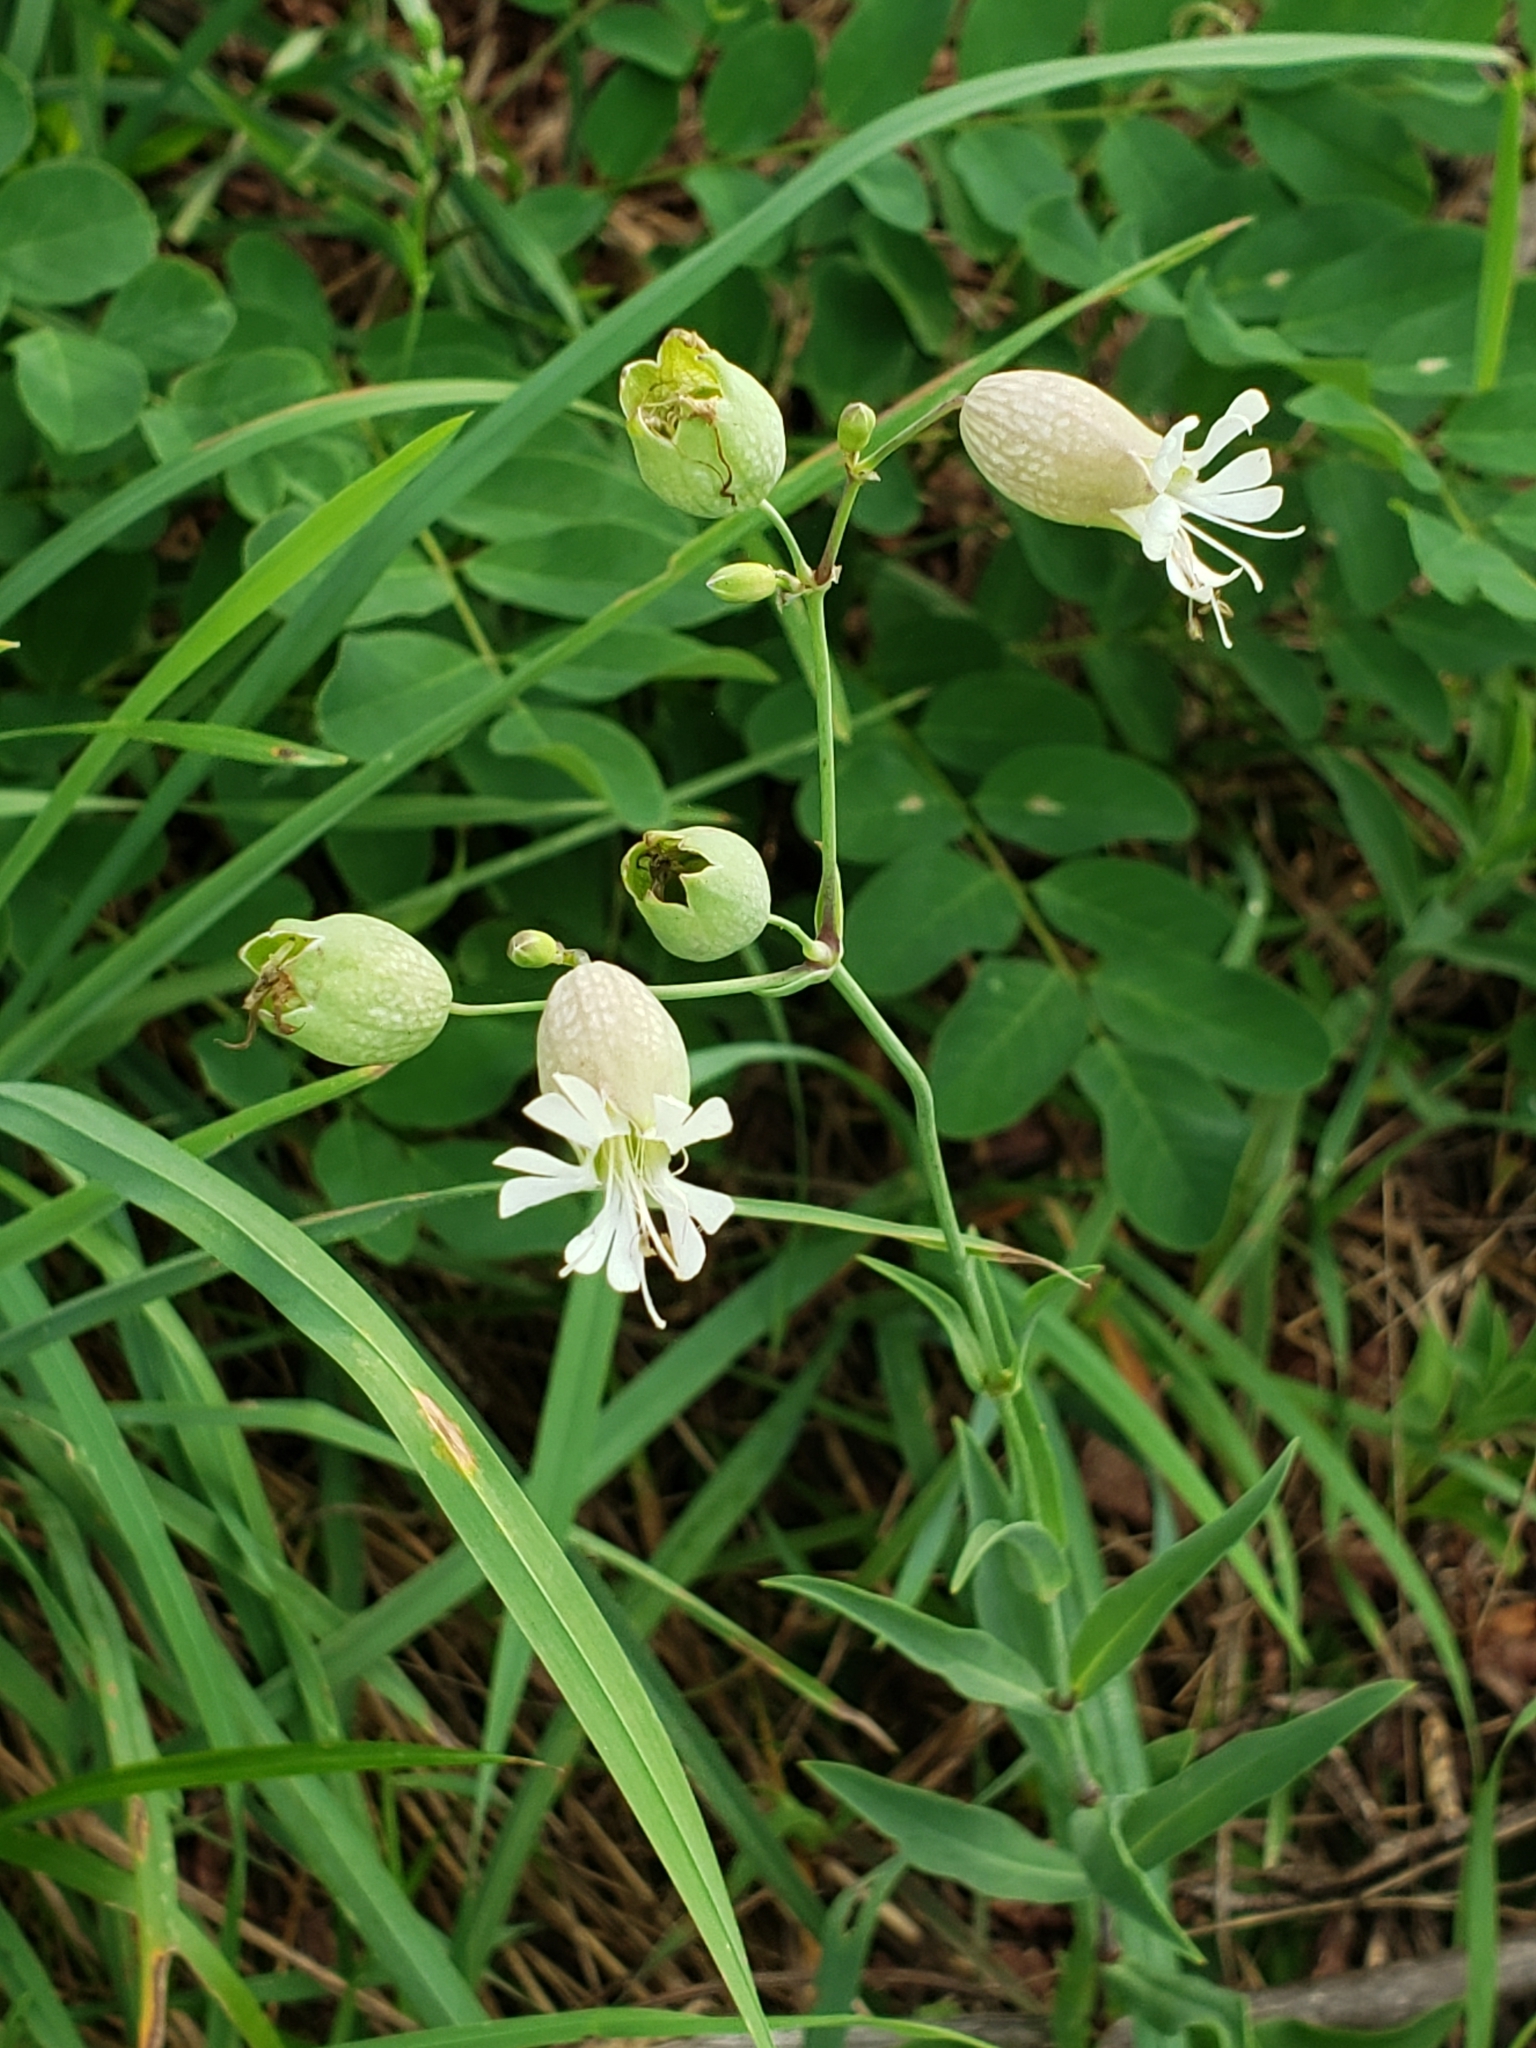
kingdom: Plantae
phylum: Tracheophyta
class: Magnoliopsida
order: Caryophyllales
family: Caryophyllaceae
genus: Silene
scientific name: Silene vulgaris
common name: Bladder campion
